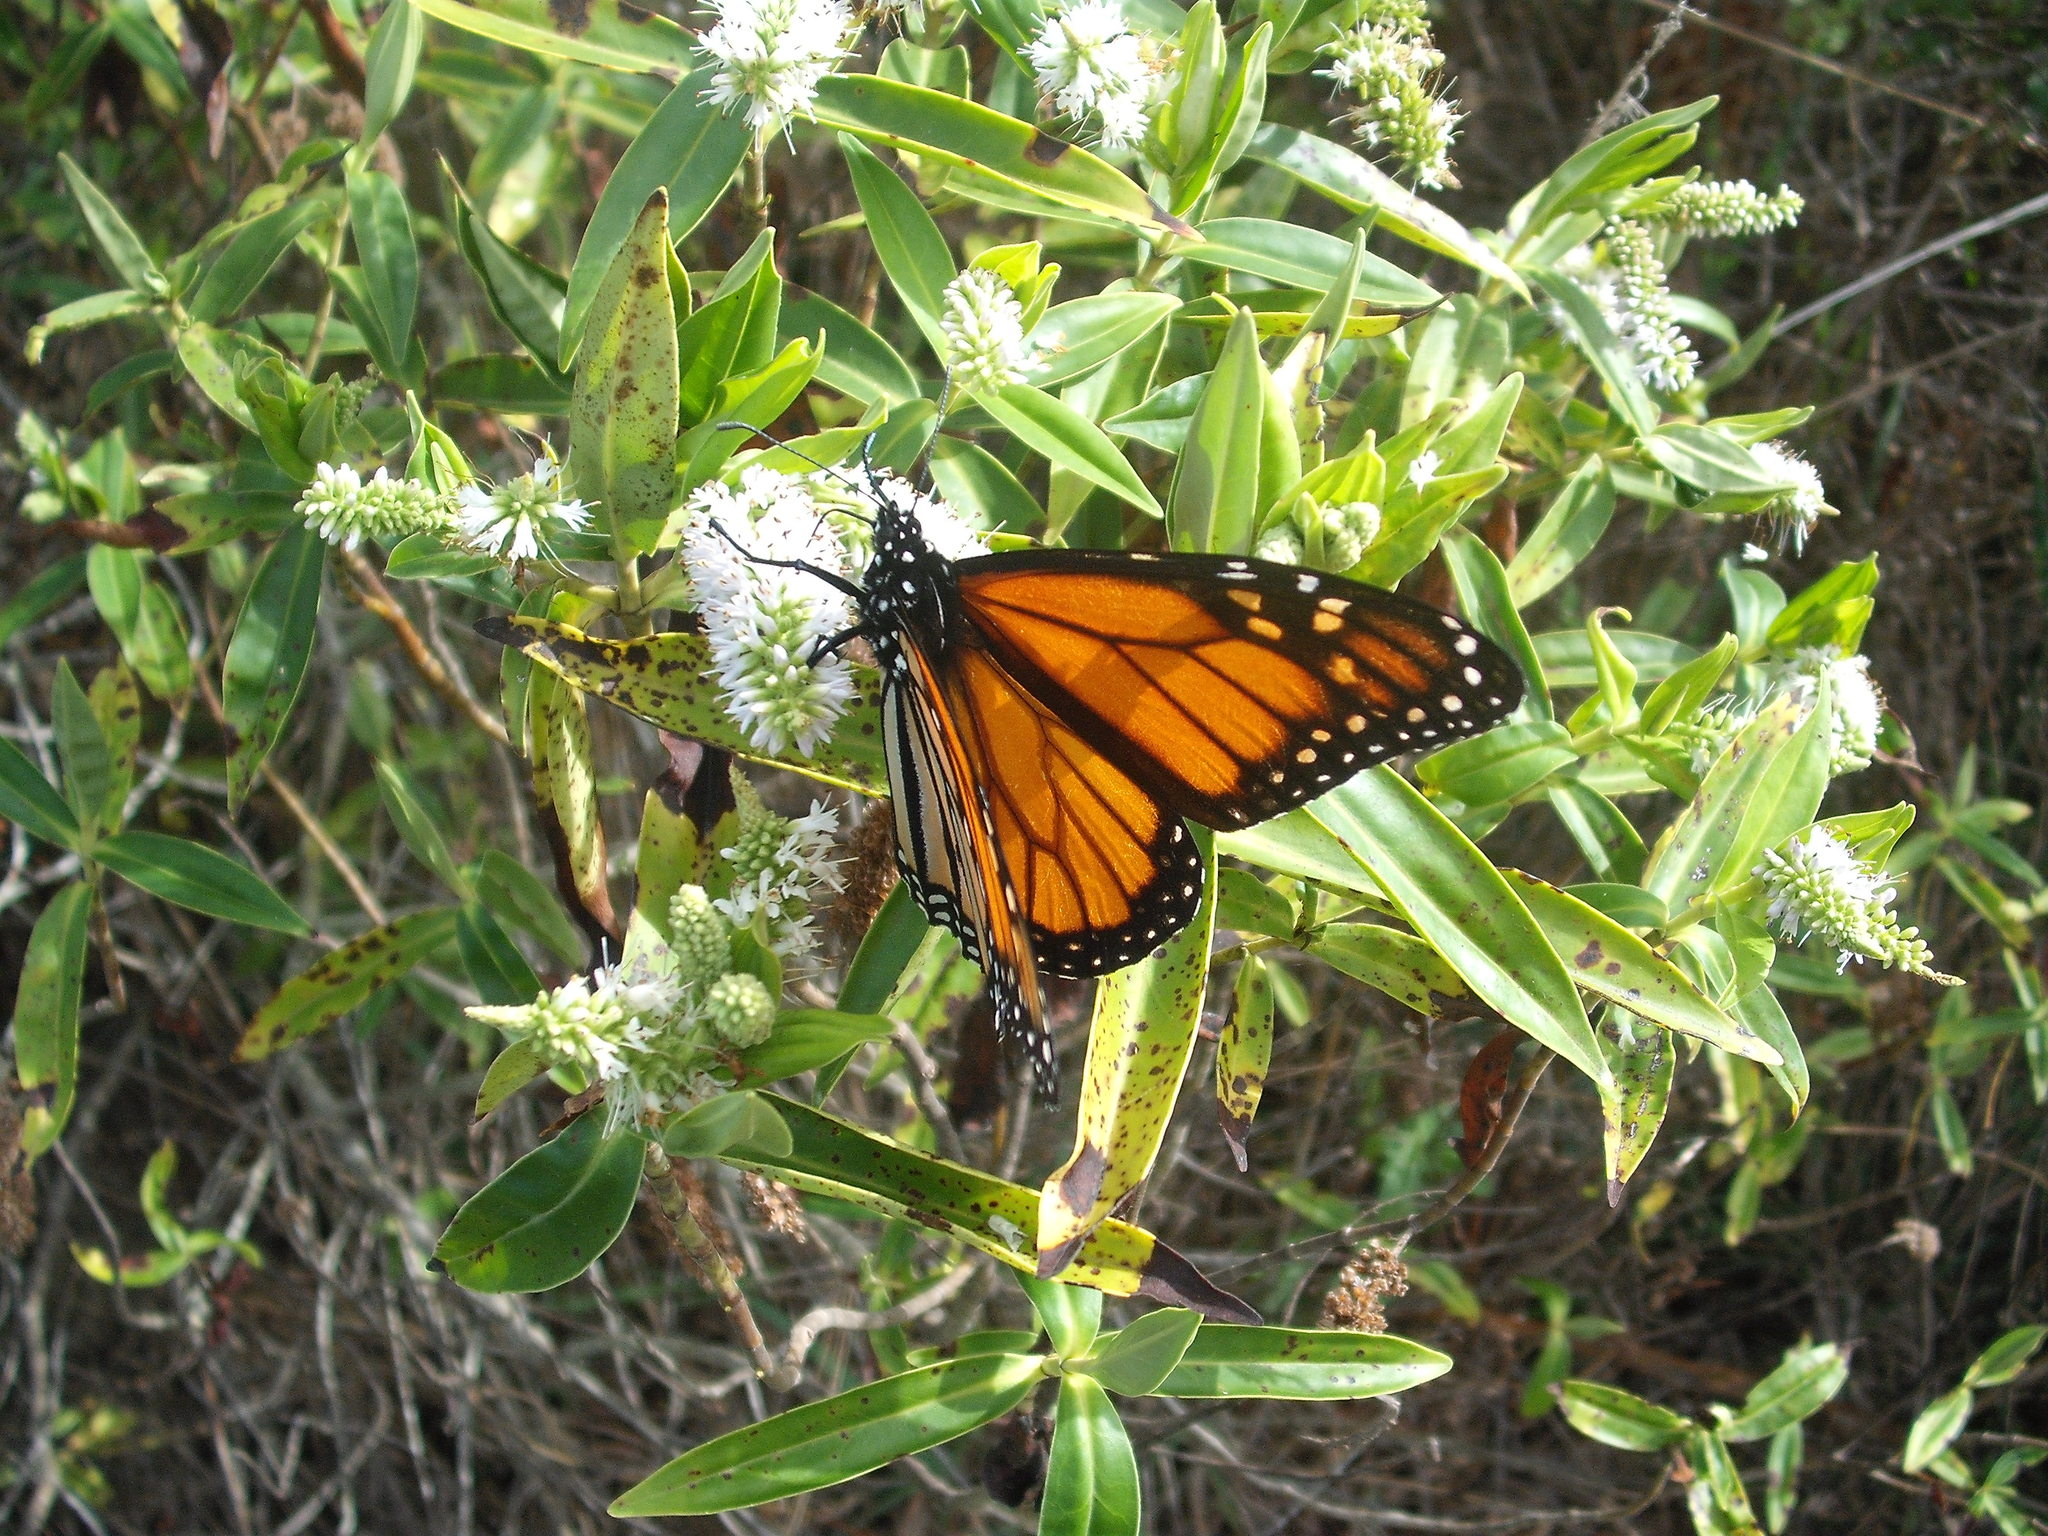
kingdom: Animalia
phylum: Arthropoda
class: Insecta
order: Lepidoptera
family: Nymphalidae
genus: Danaus
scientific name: Danaus plexippus
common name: Monarch
